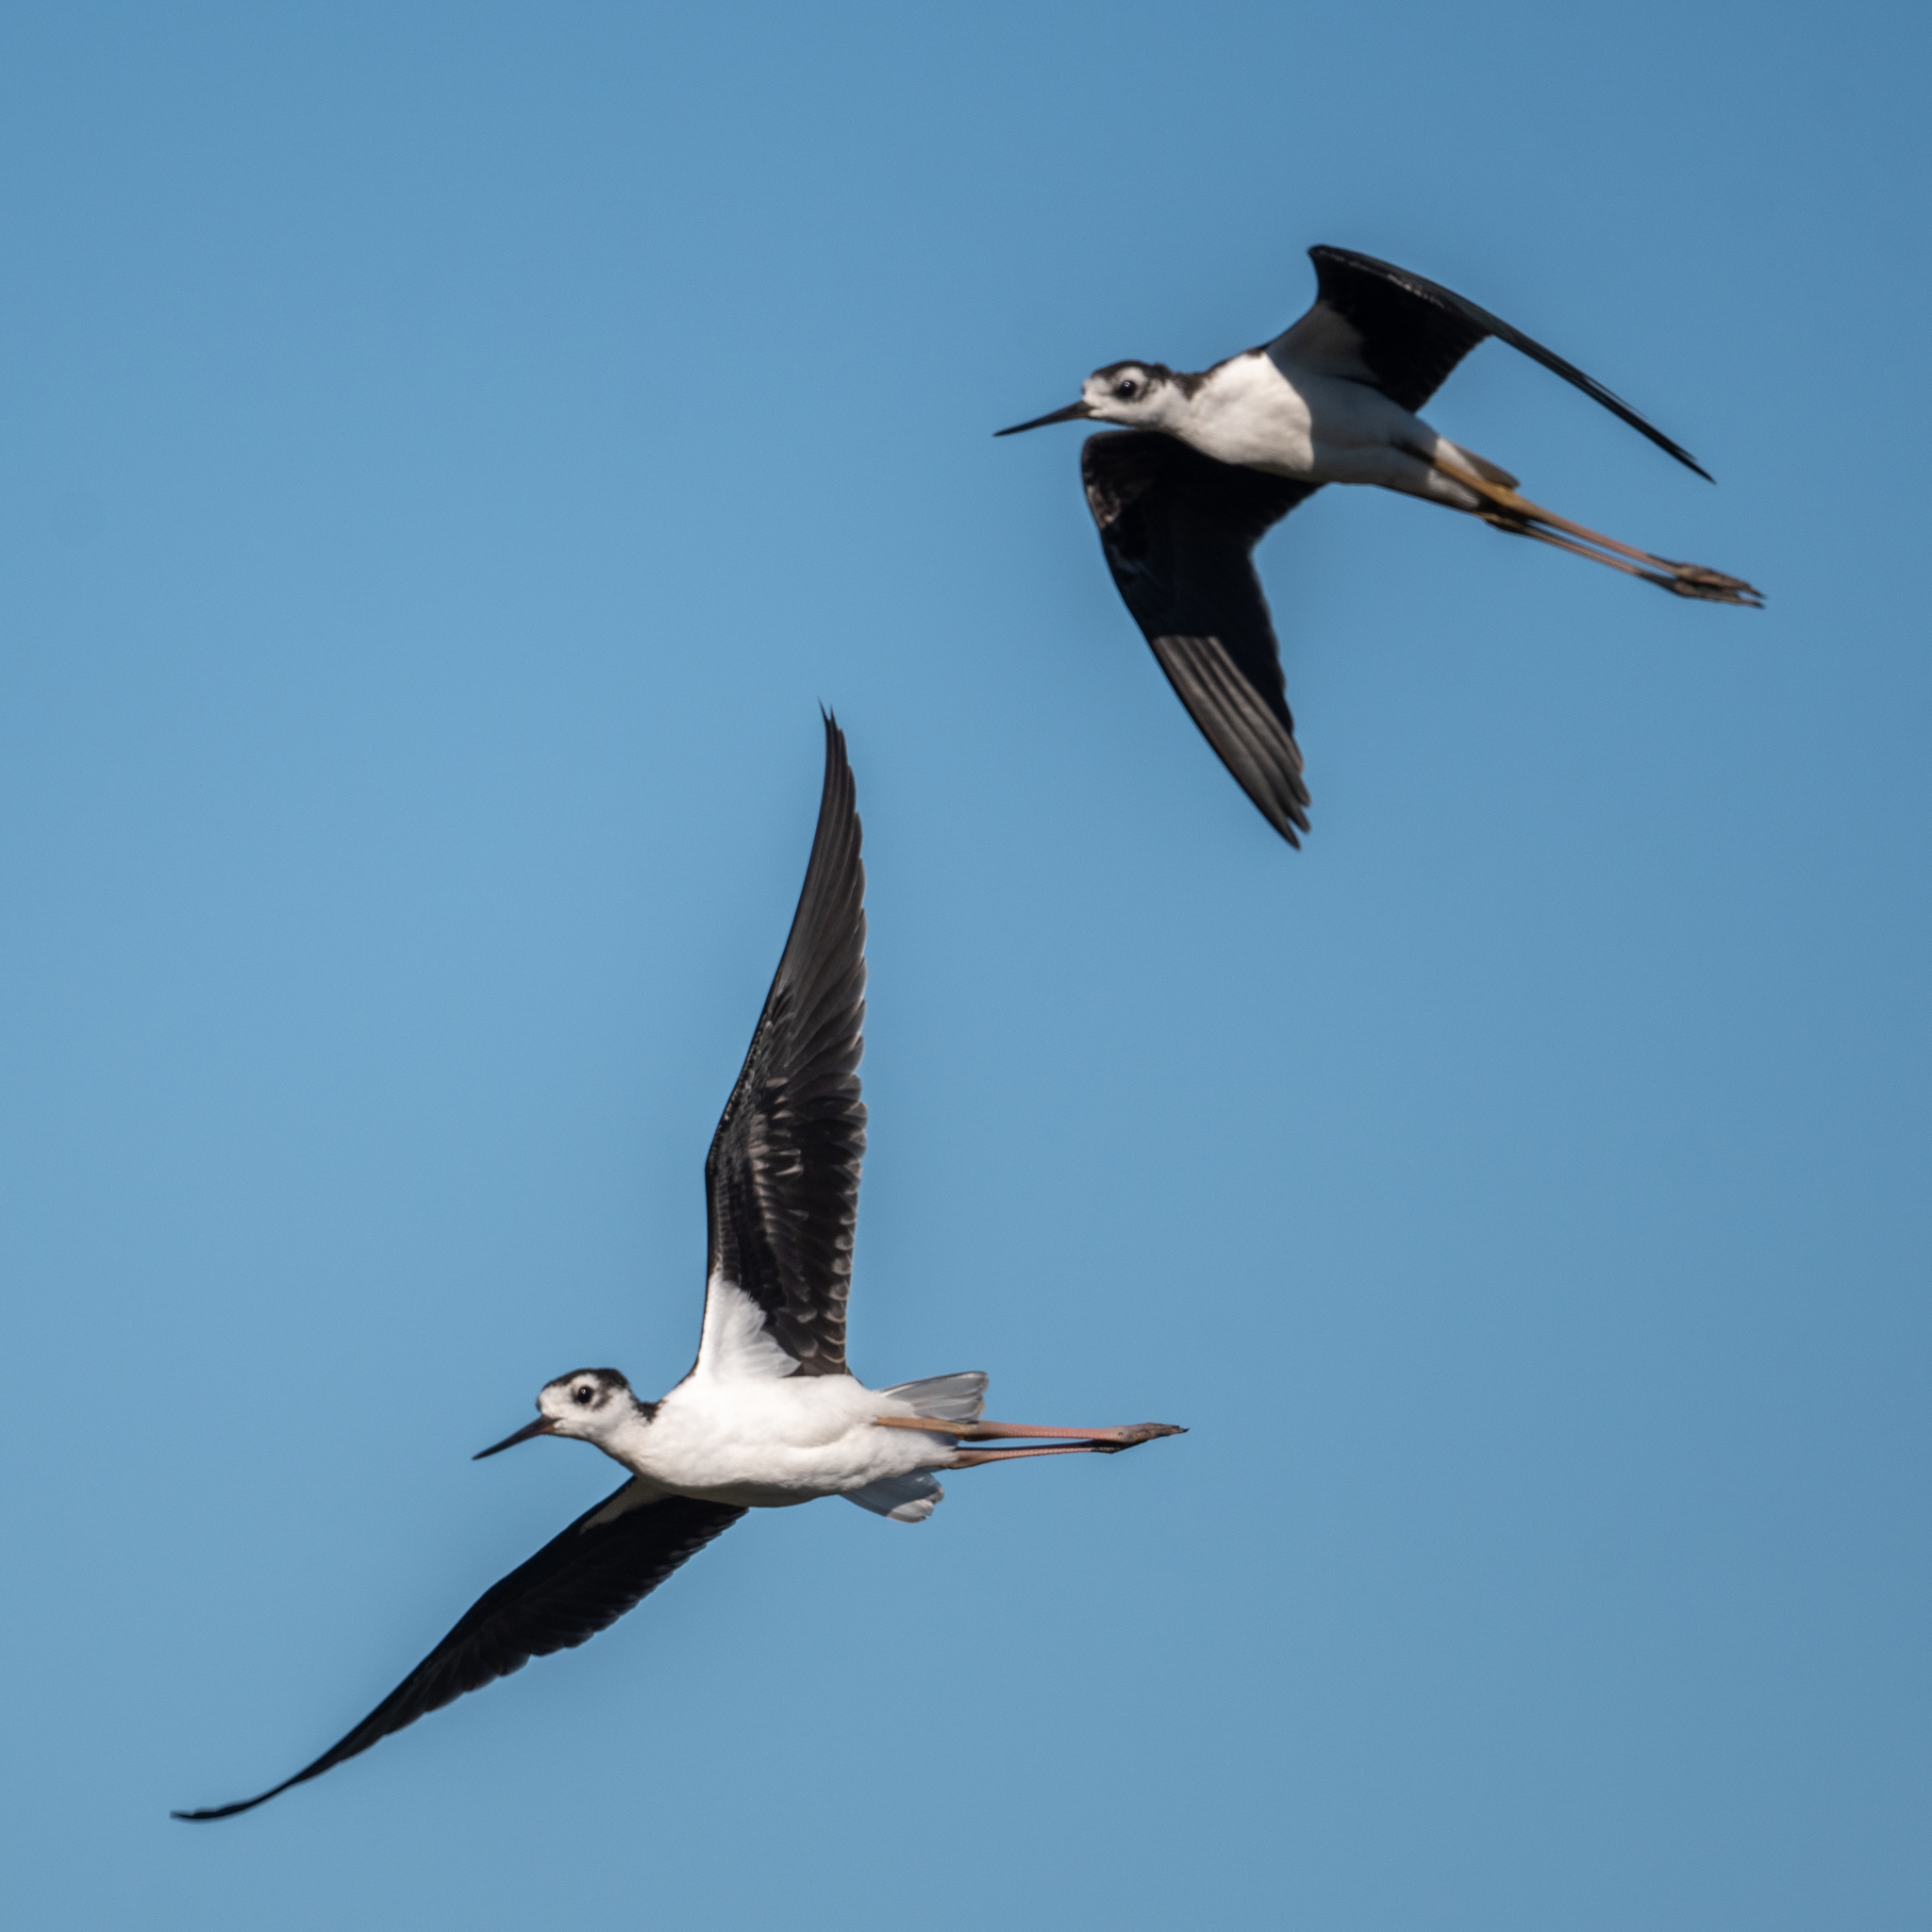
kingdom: Animalia
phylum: Chordata
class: Aves
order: Charadriiformes
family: Recurvirostridae
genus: Himantopus
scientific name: Himantopus mexicanus
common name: Black-necked stilt
